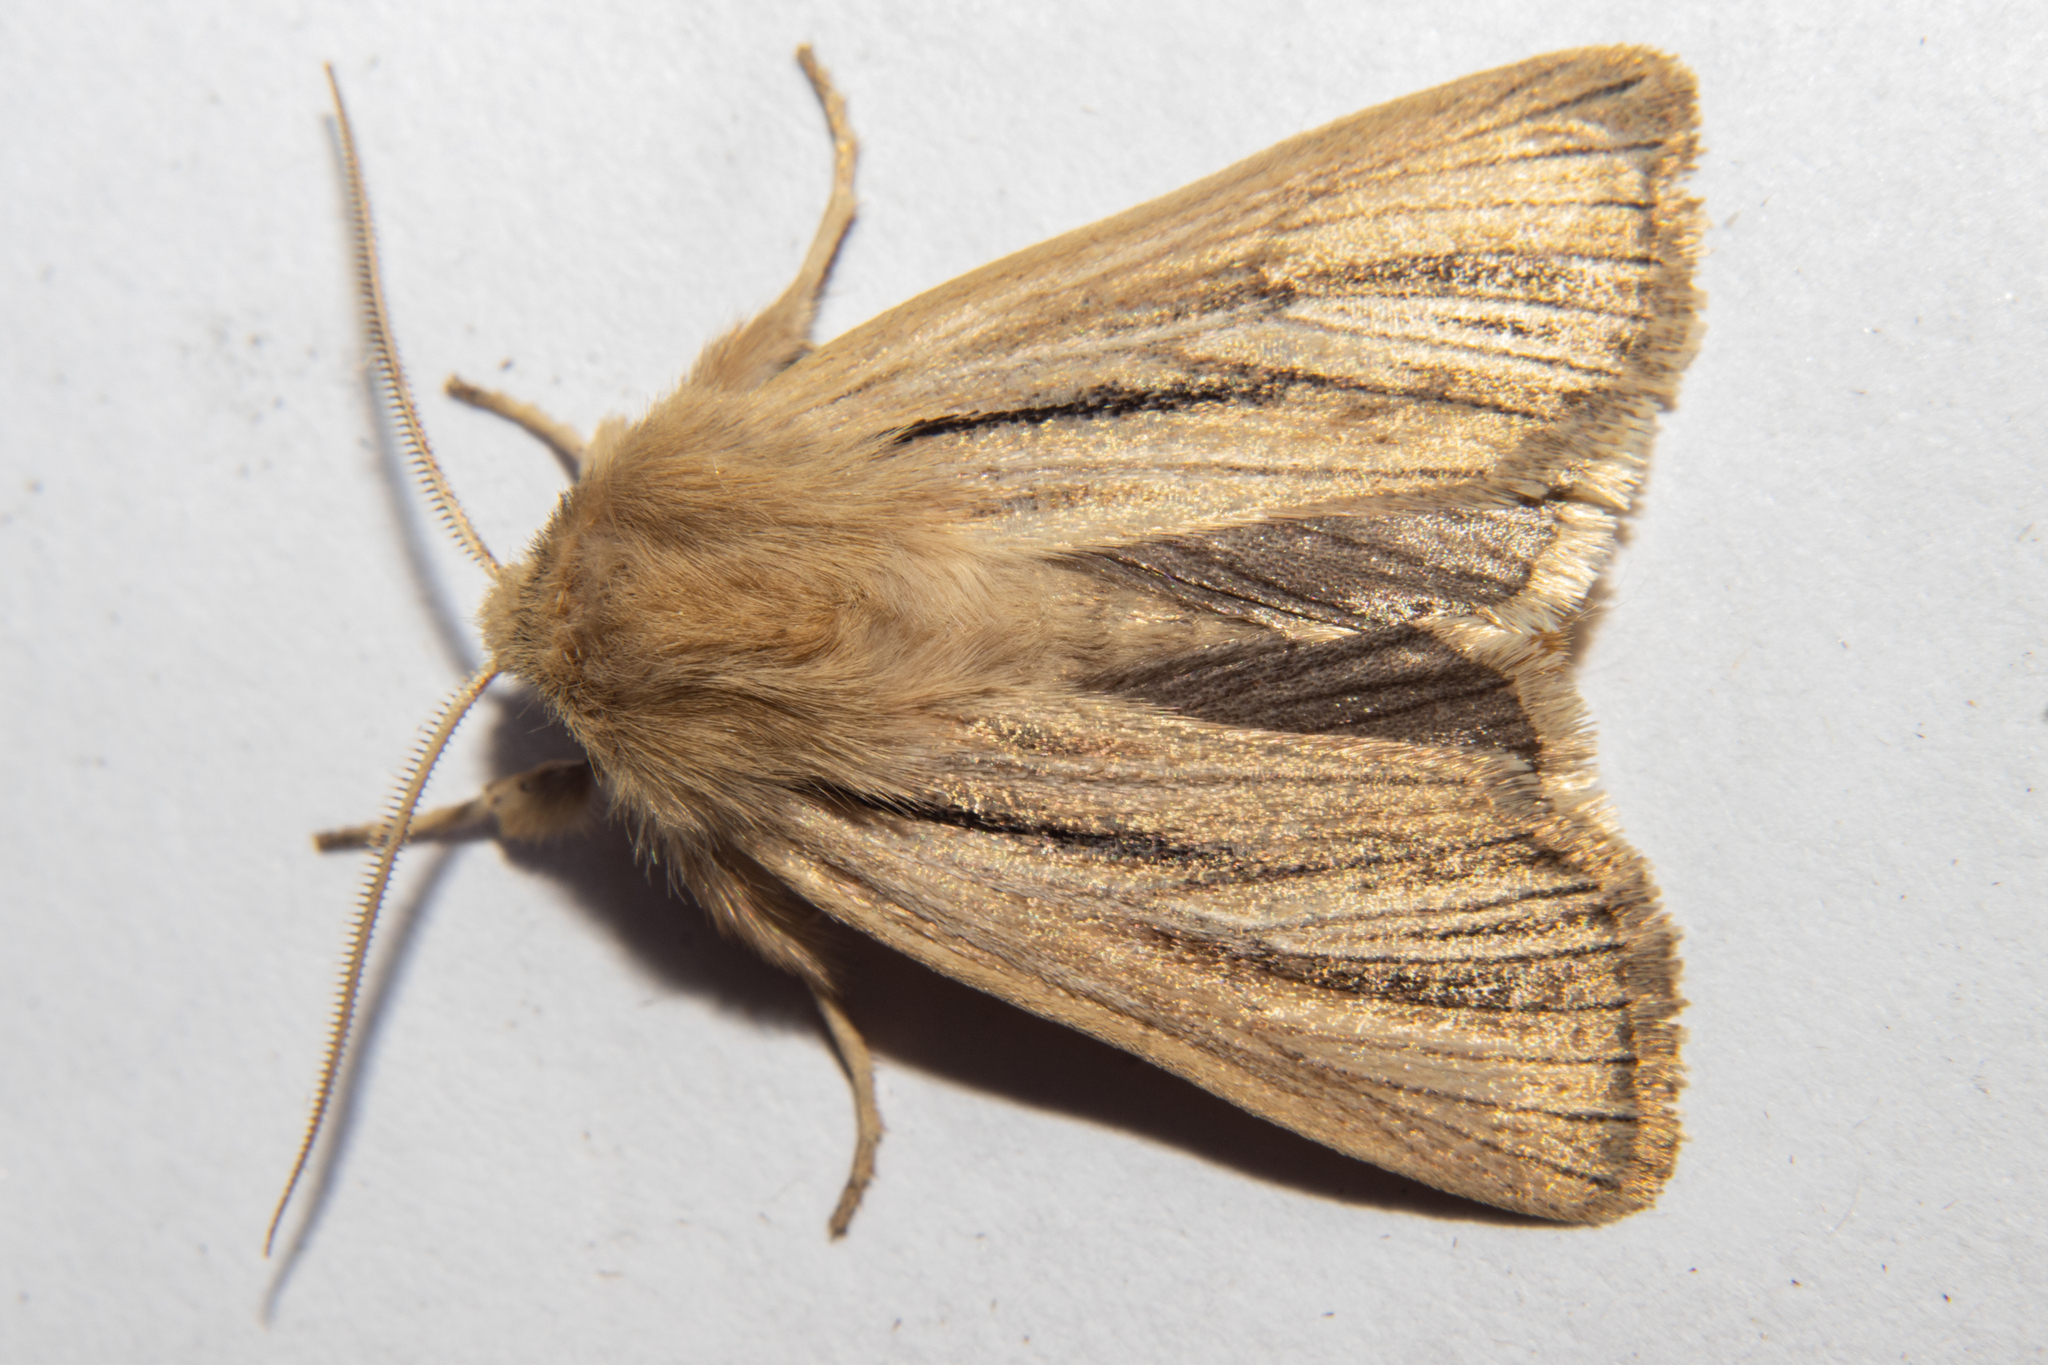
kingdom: Animalia
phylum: Arthropoda
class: Insecta
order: Lepidoptera
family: Noctuidae
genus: Ichneutica
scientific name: Ichneutica
